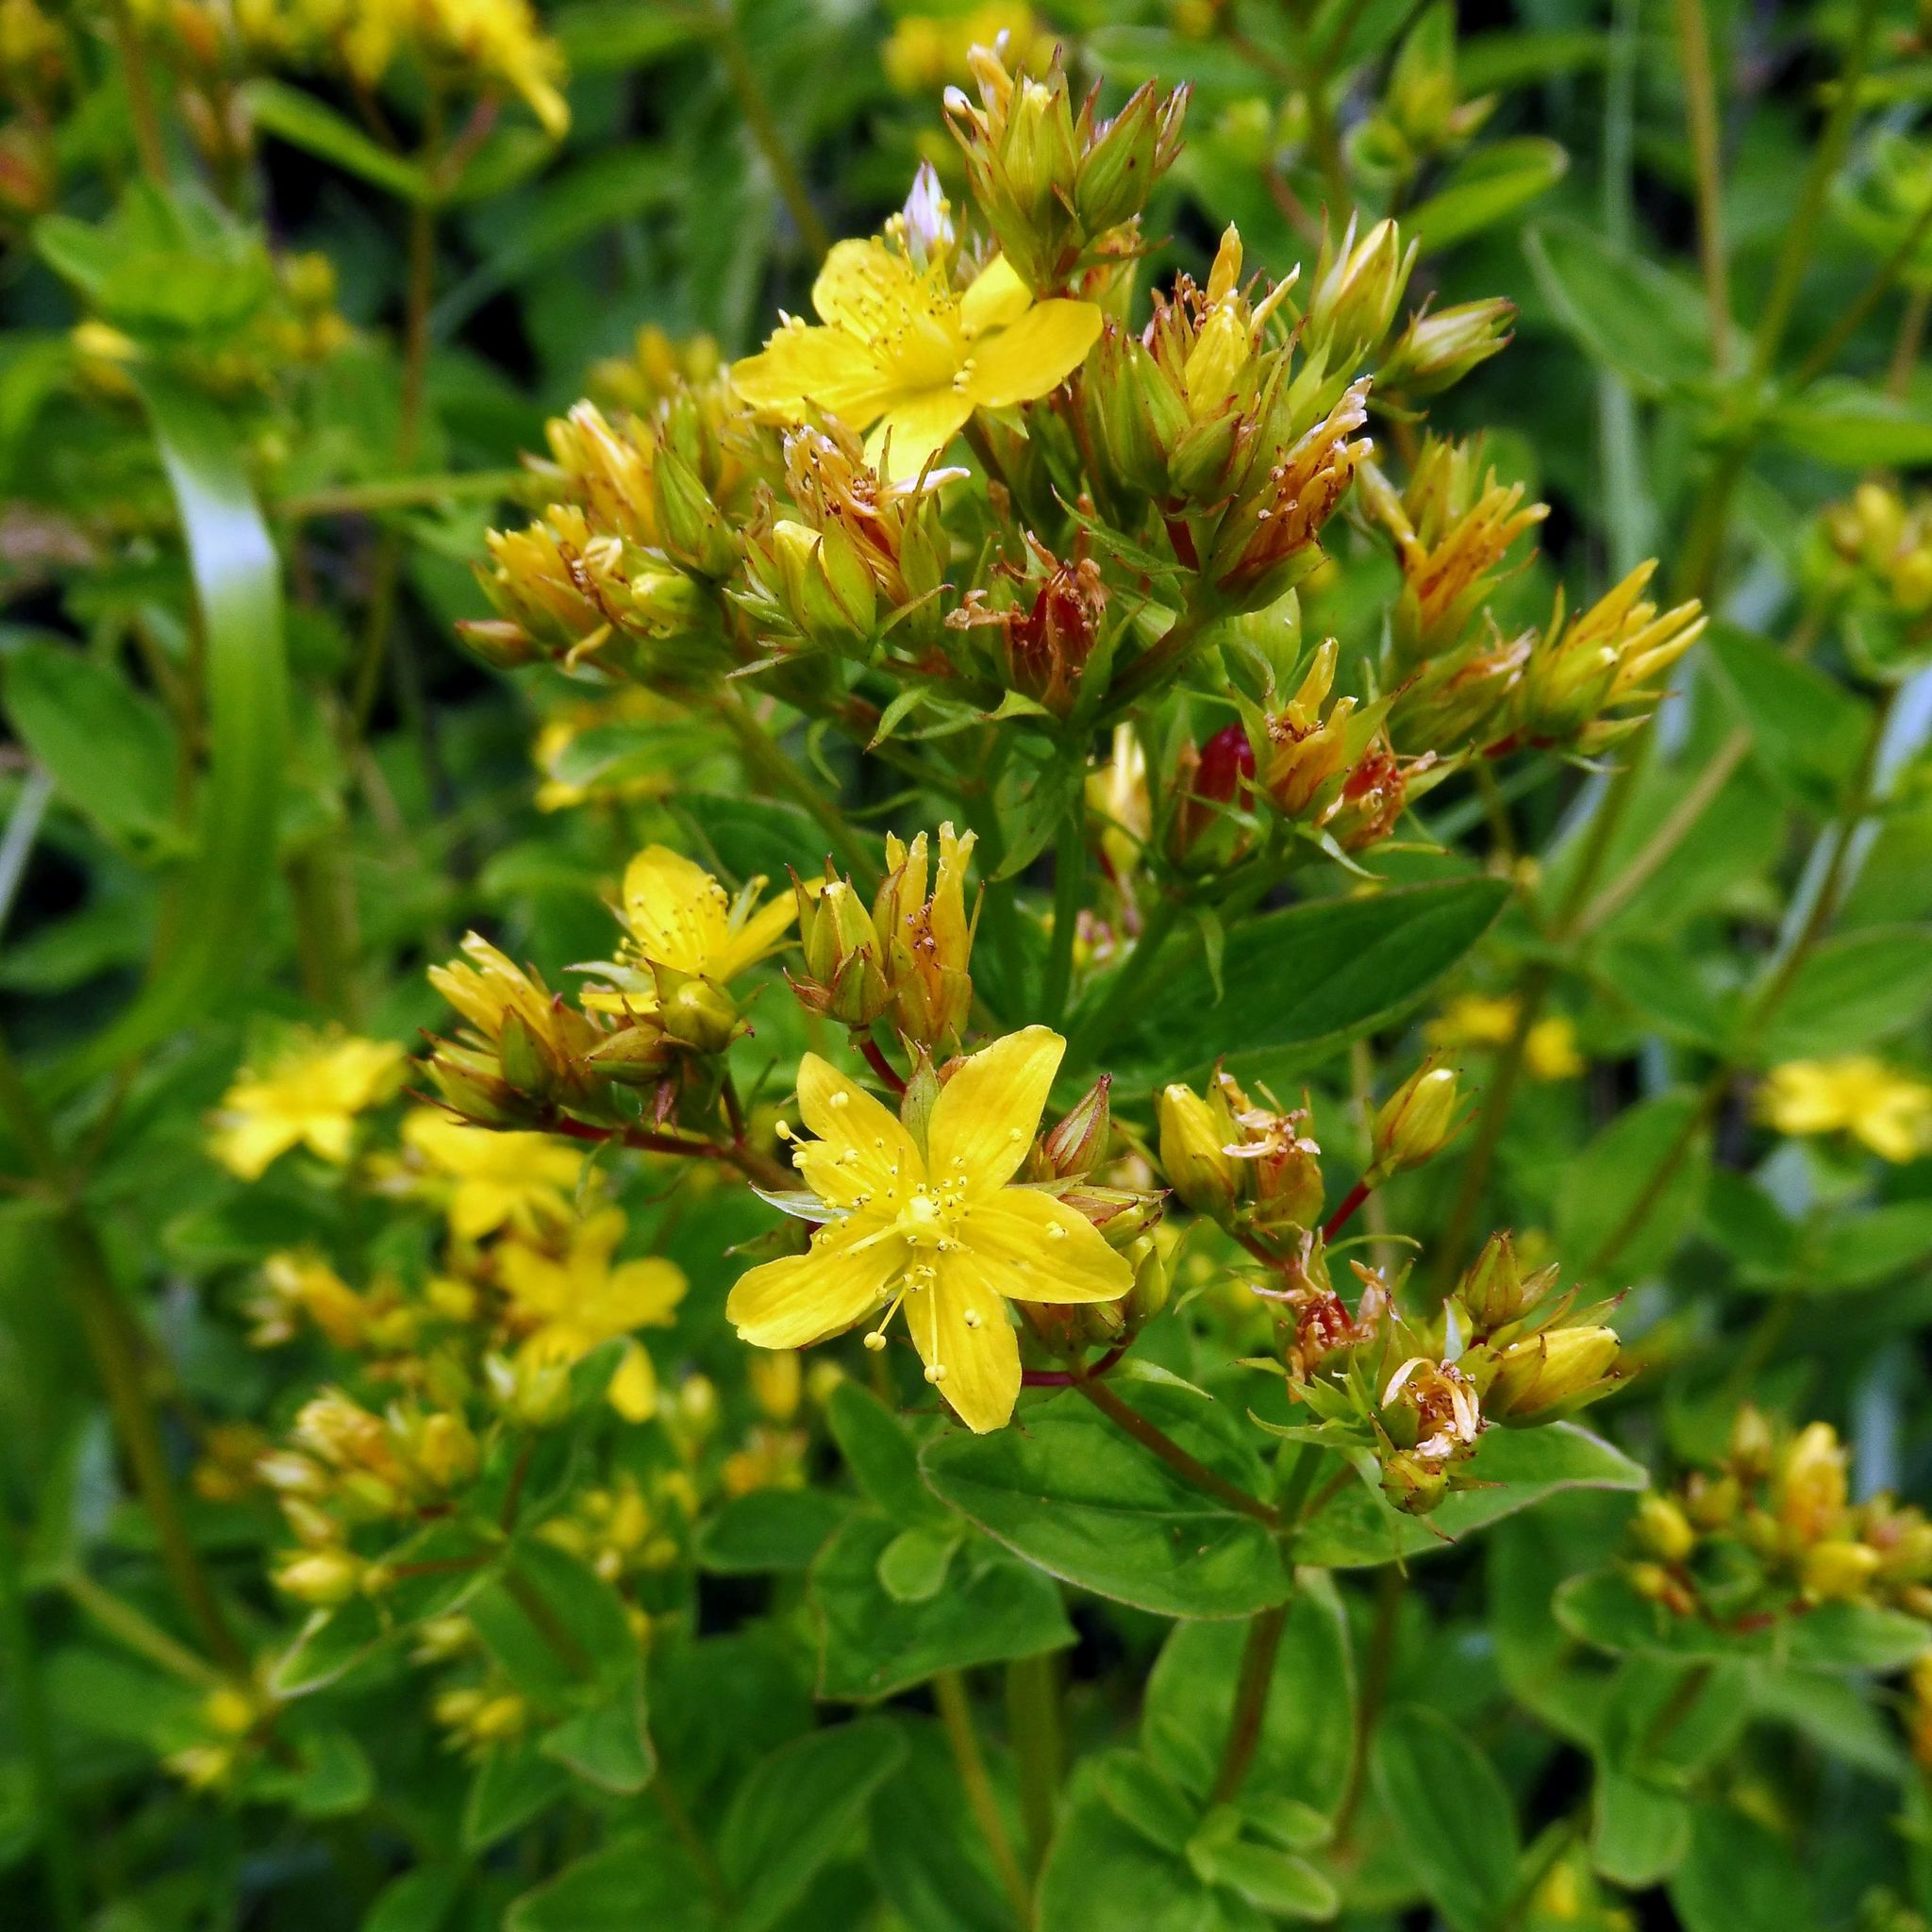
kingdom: Plantae
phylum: Tracheophyta
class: Magnoliopsida
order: Malpighiales
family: Hypericaceae
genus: Hypericum
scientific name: Hypericum tetrapterum
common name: Square-stalked st. john's-wort
